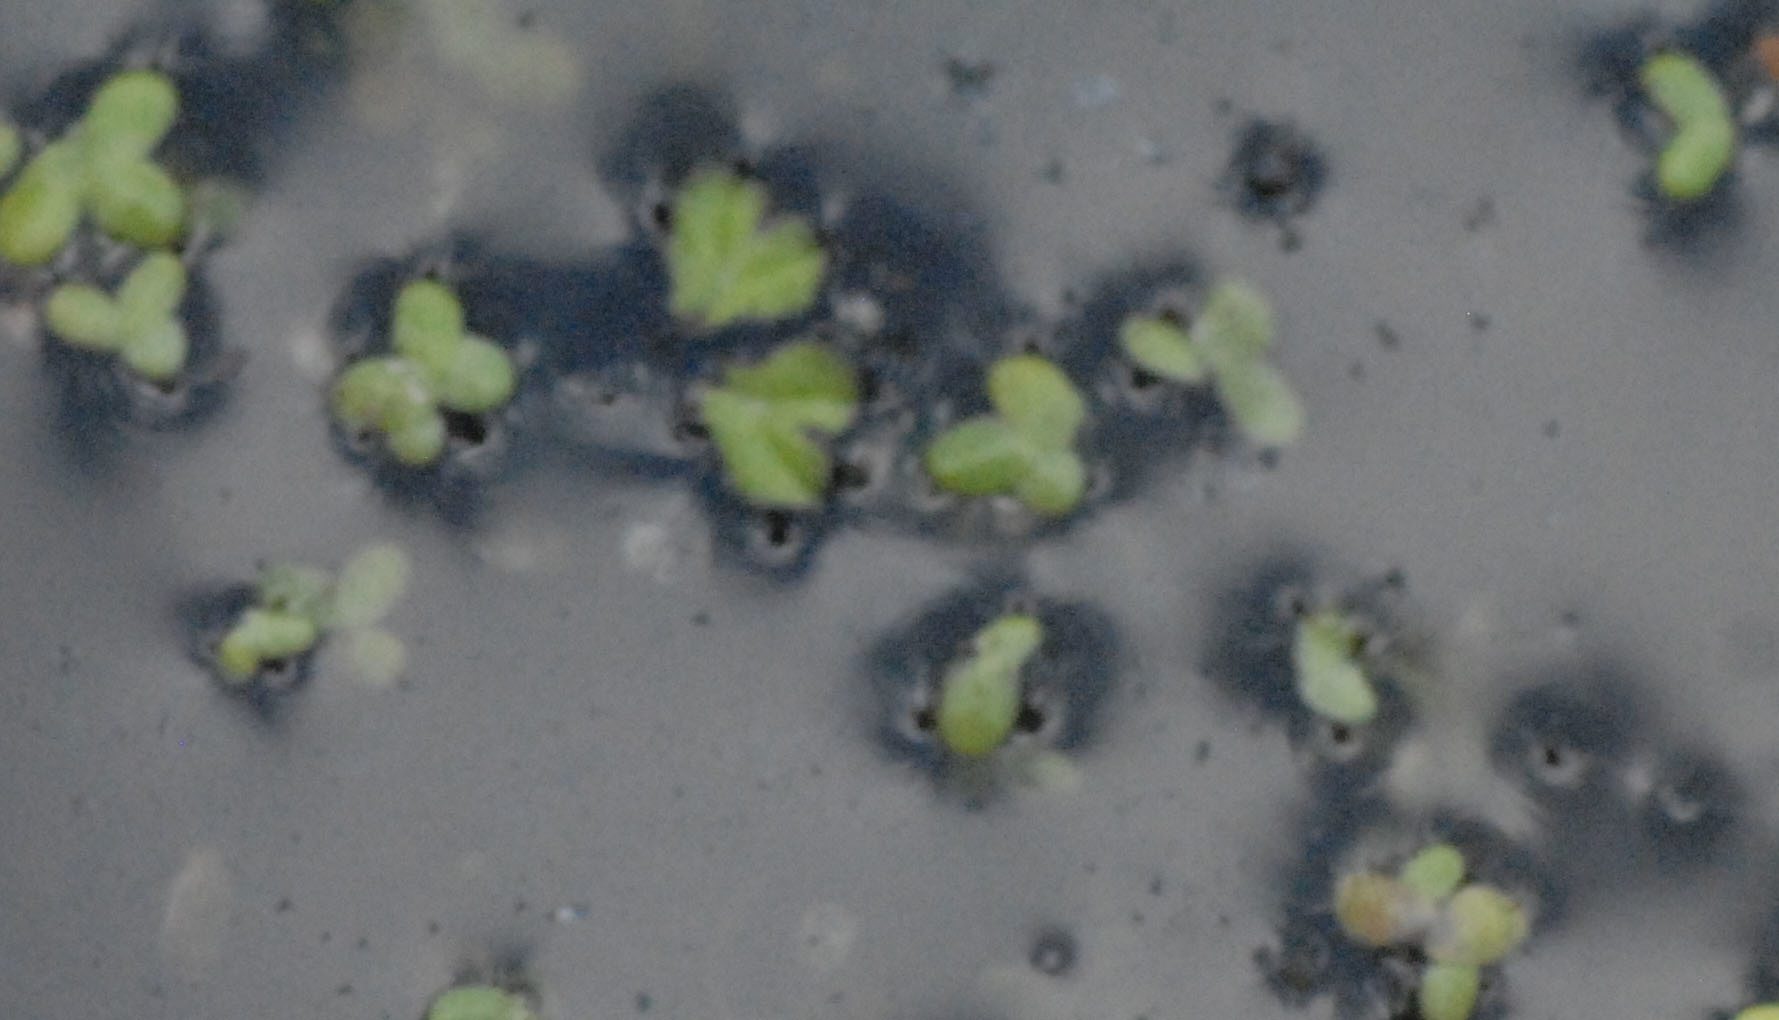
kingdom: Plantae
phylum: Marchantiophyta
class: Marchantiopsida
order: Marchantiales
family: Ricciaceae
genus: Ricciocarpos
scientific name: Ricciocarpos natans
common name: Purple-fringed liverwort
